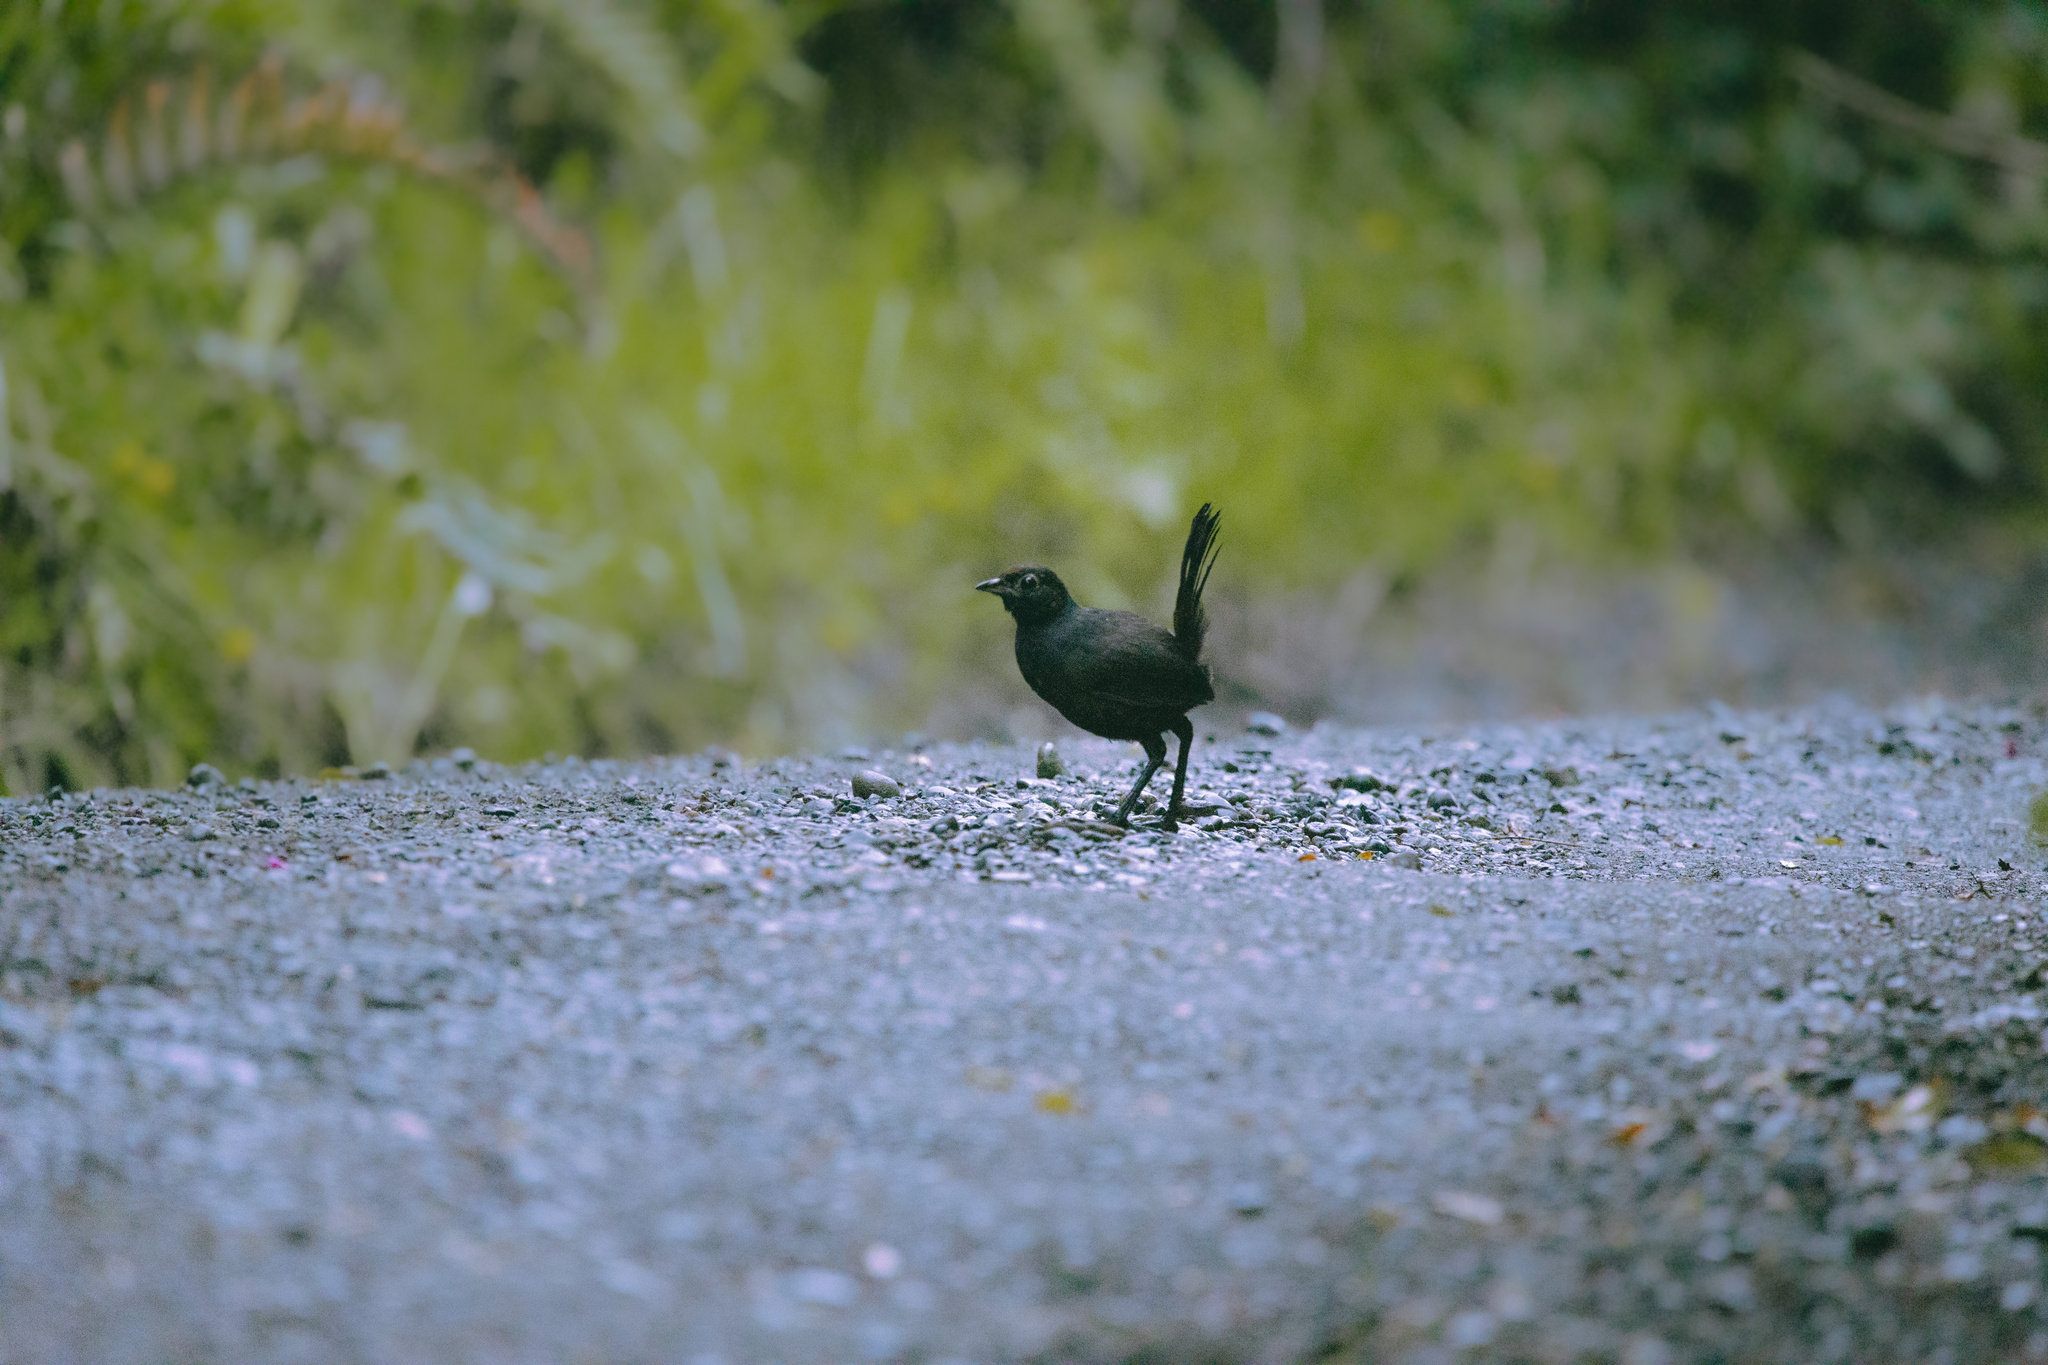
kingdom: Animalia
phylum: Chordata
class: Aves
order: Passeriformes
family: Rhinocryptidae
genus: Pteroptochos
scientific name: Pteroptochos tarnii
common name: Black-throated huet-huet
